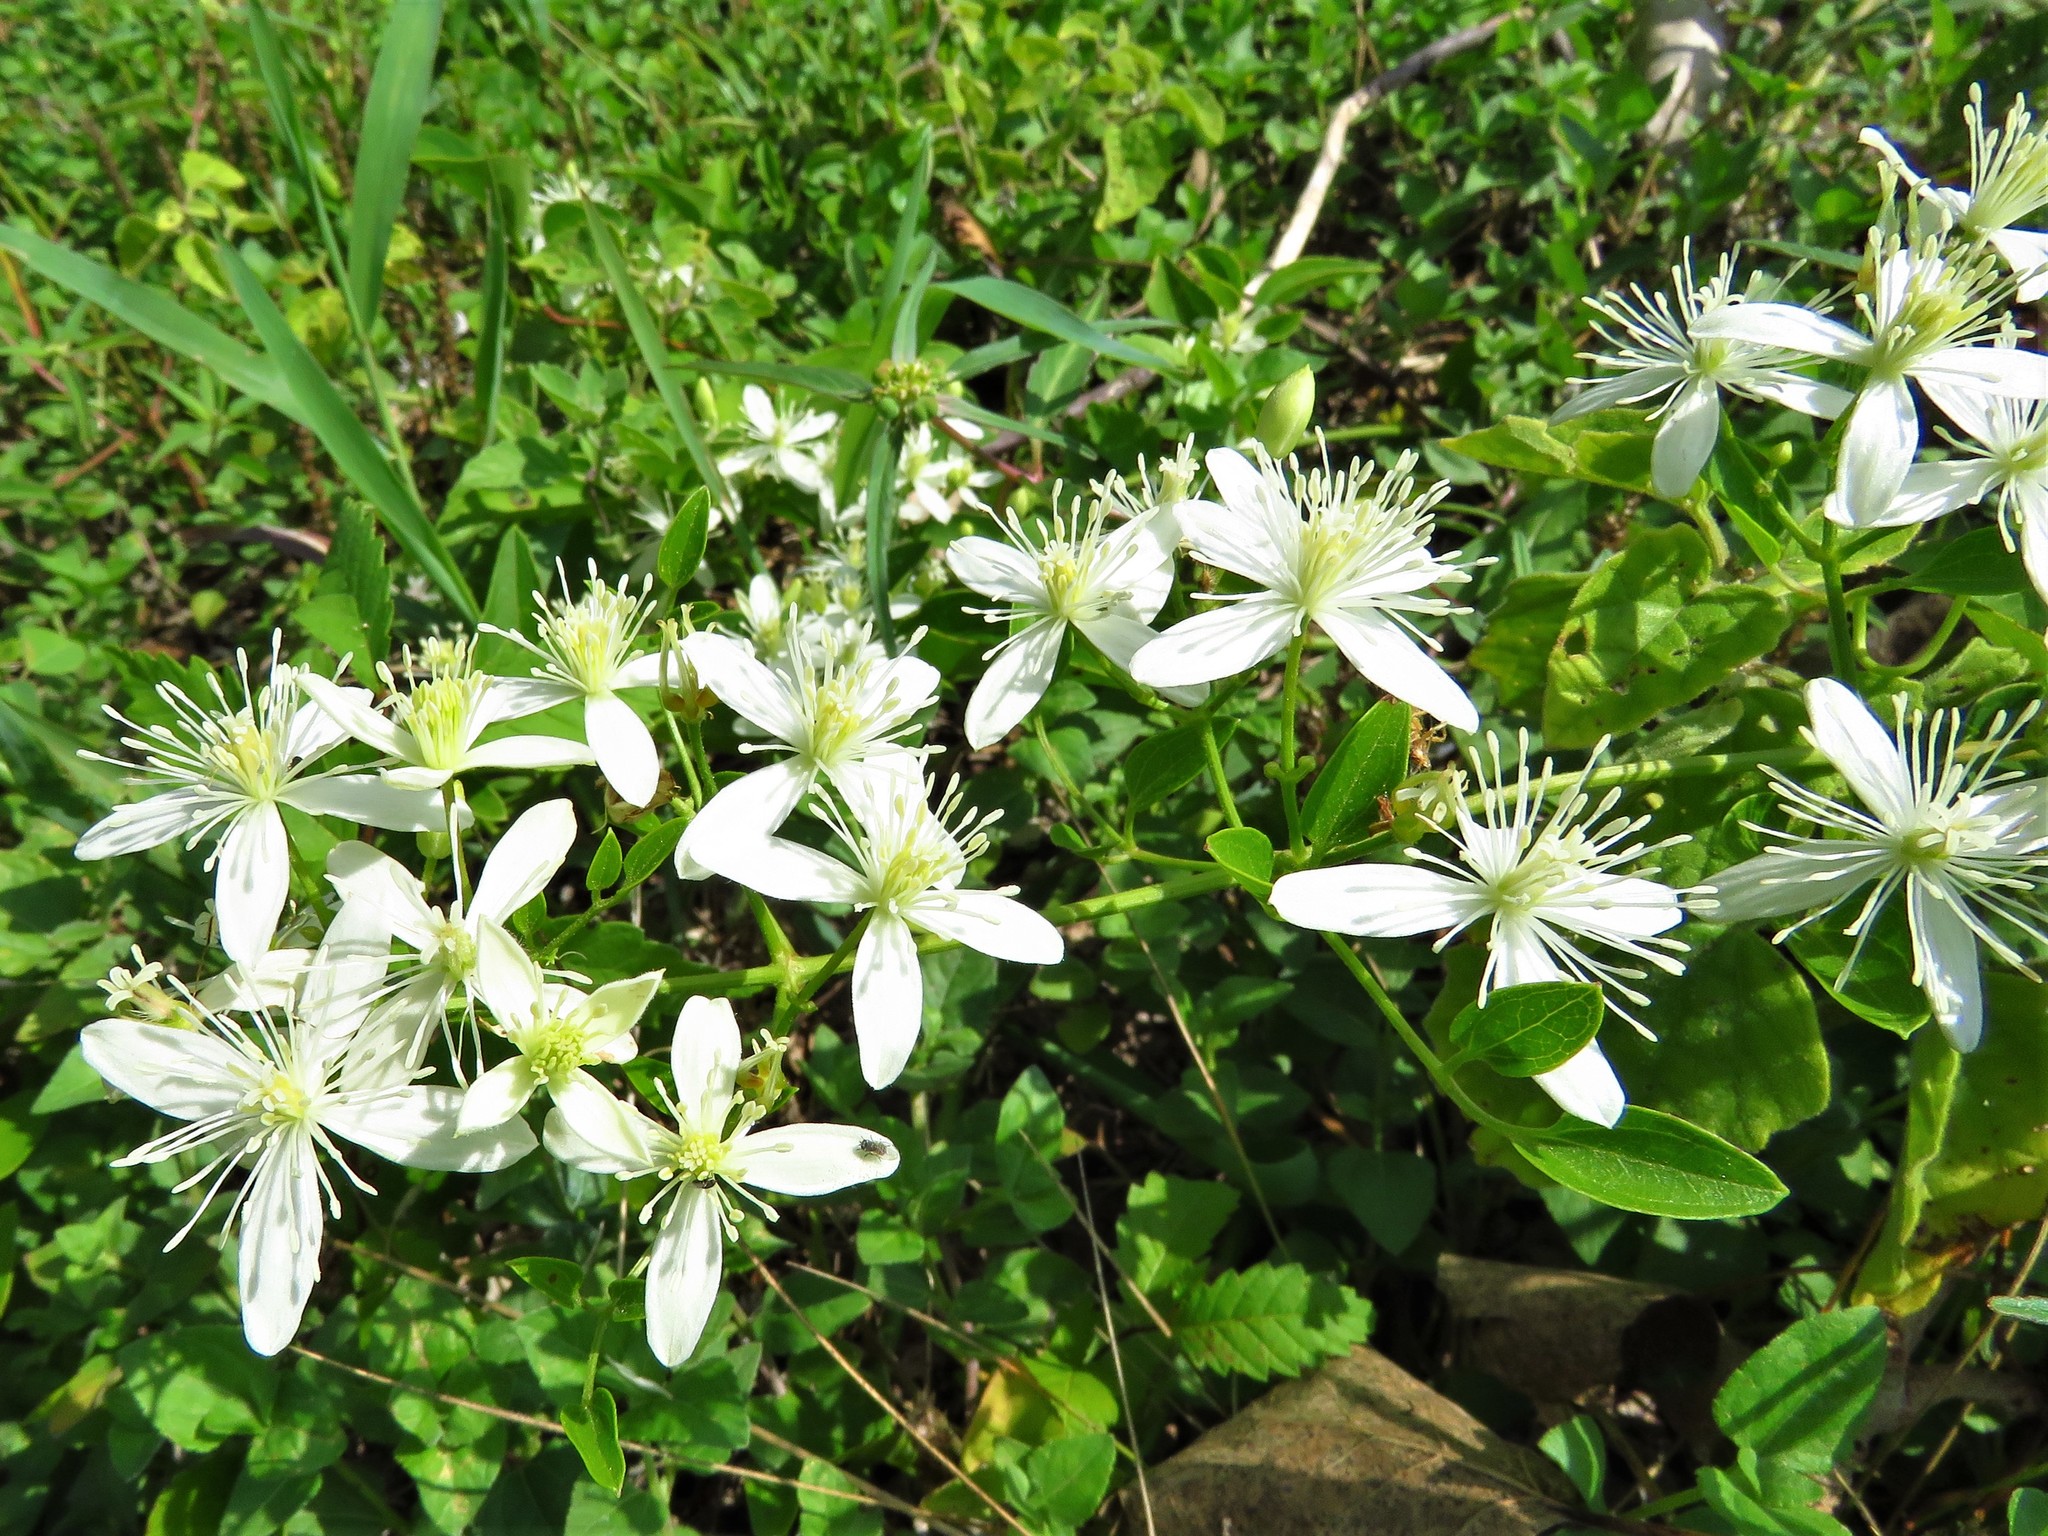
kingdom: Plantae
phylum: Tracheophyta
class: Magnoliopsida
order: Ranunculales
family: Ranunculaceae
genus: Clematis
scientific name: Clematis terniflora
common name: Sweet autumn clematis
